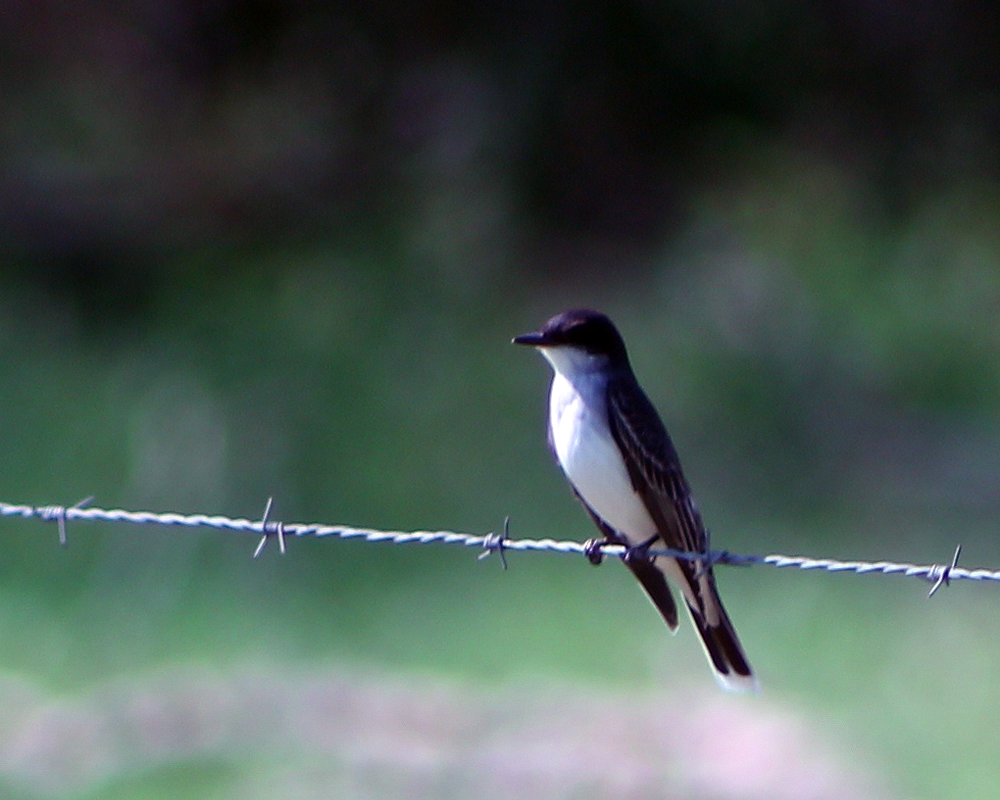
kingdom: Animalia
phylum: Chordata
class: Aves
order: Passeriformes
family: Tyrannidae
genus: Tyrannus
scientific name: Tyrannus tyrannus
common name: Eastern kingbird
